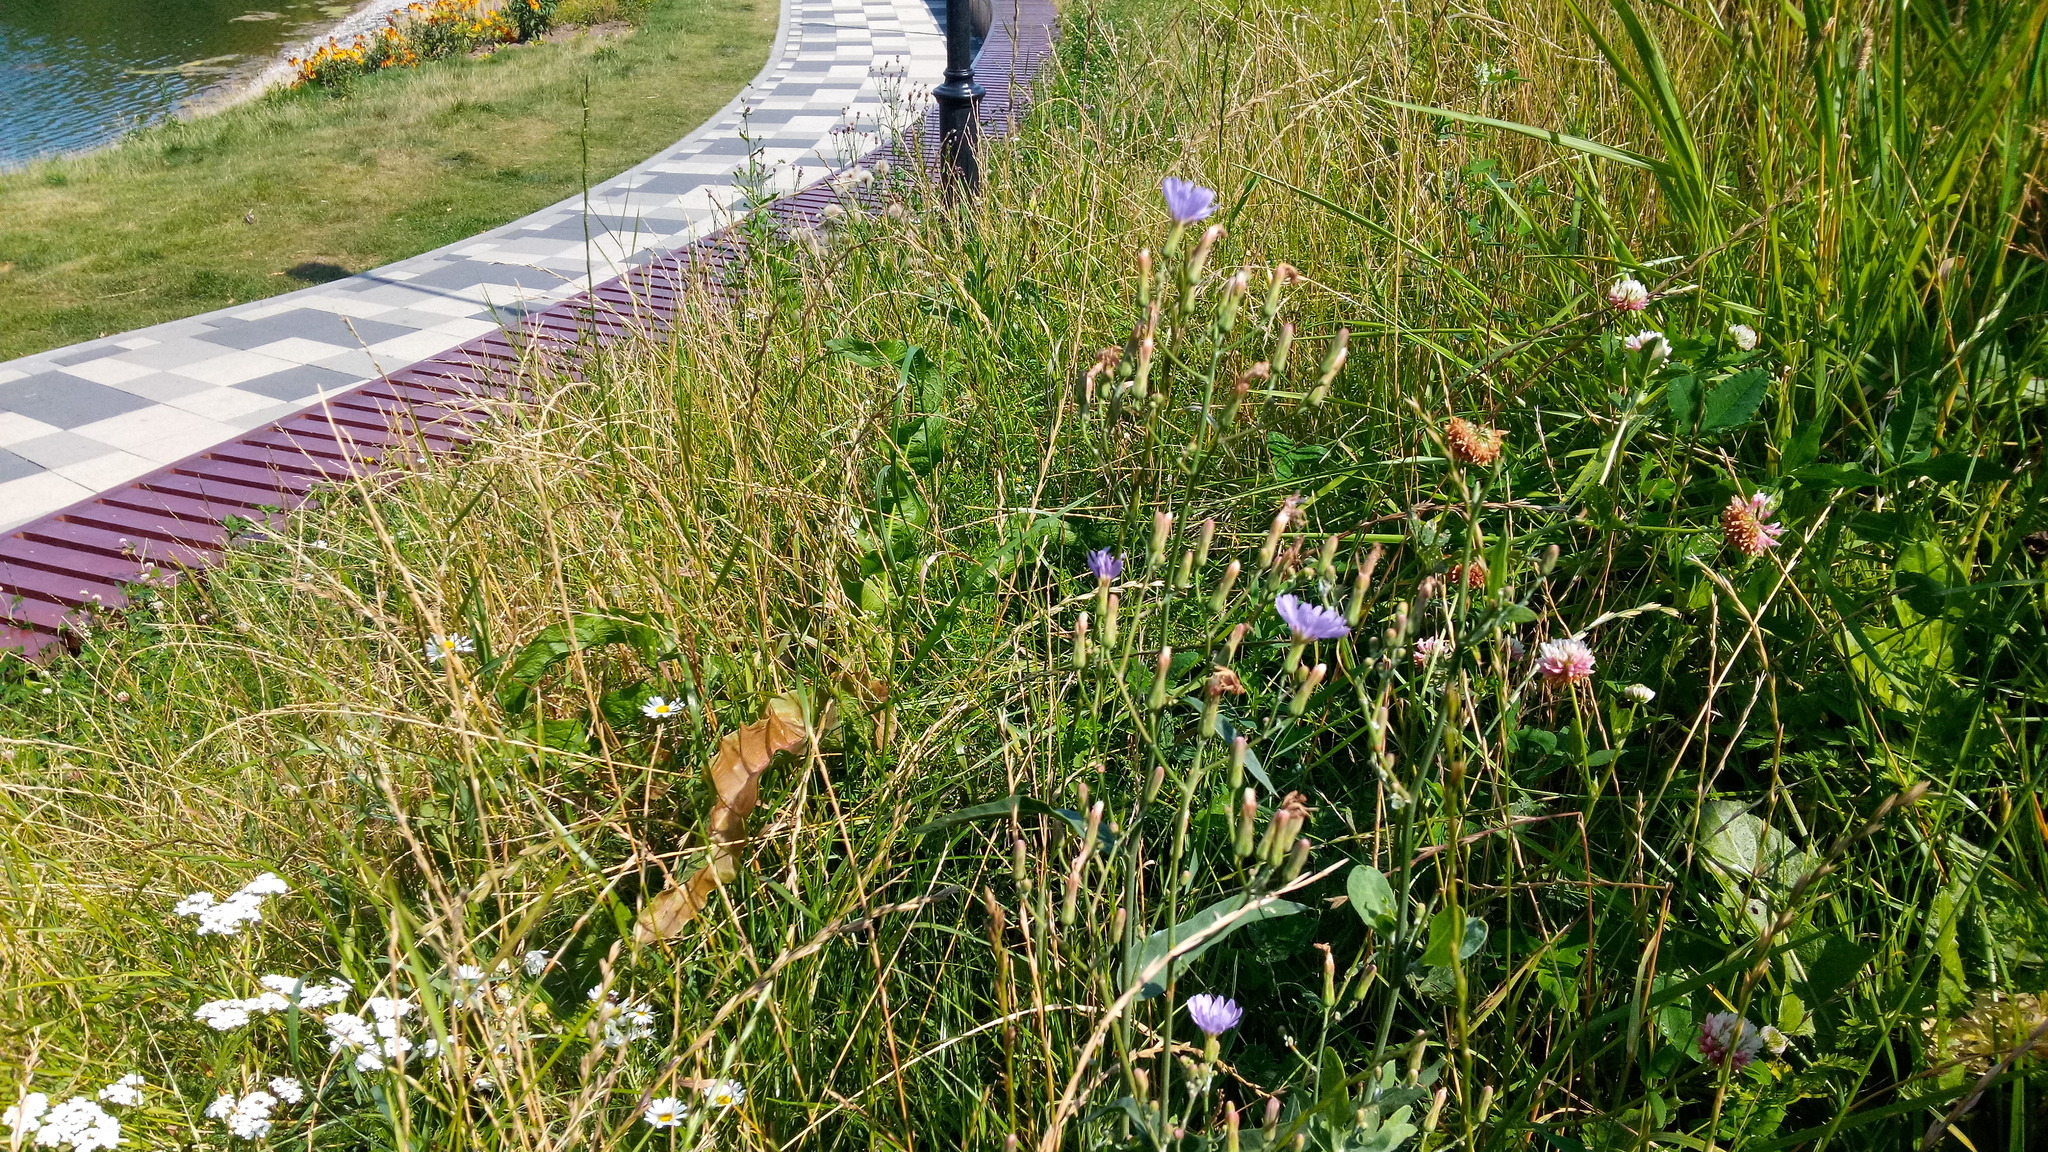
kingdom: Plantae
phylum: Tracheophyta
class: Magnoliopsida
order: Asterales
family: Asteraceae
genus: Lactuca
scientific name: Lactuca tatarica
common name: Blue lettuce
